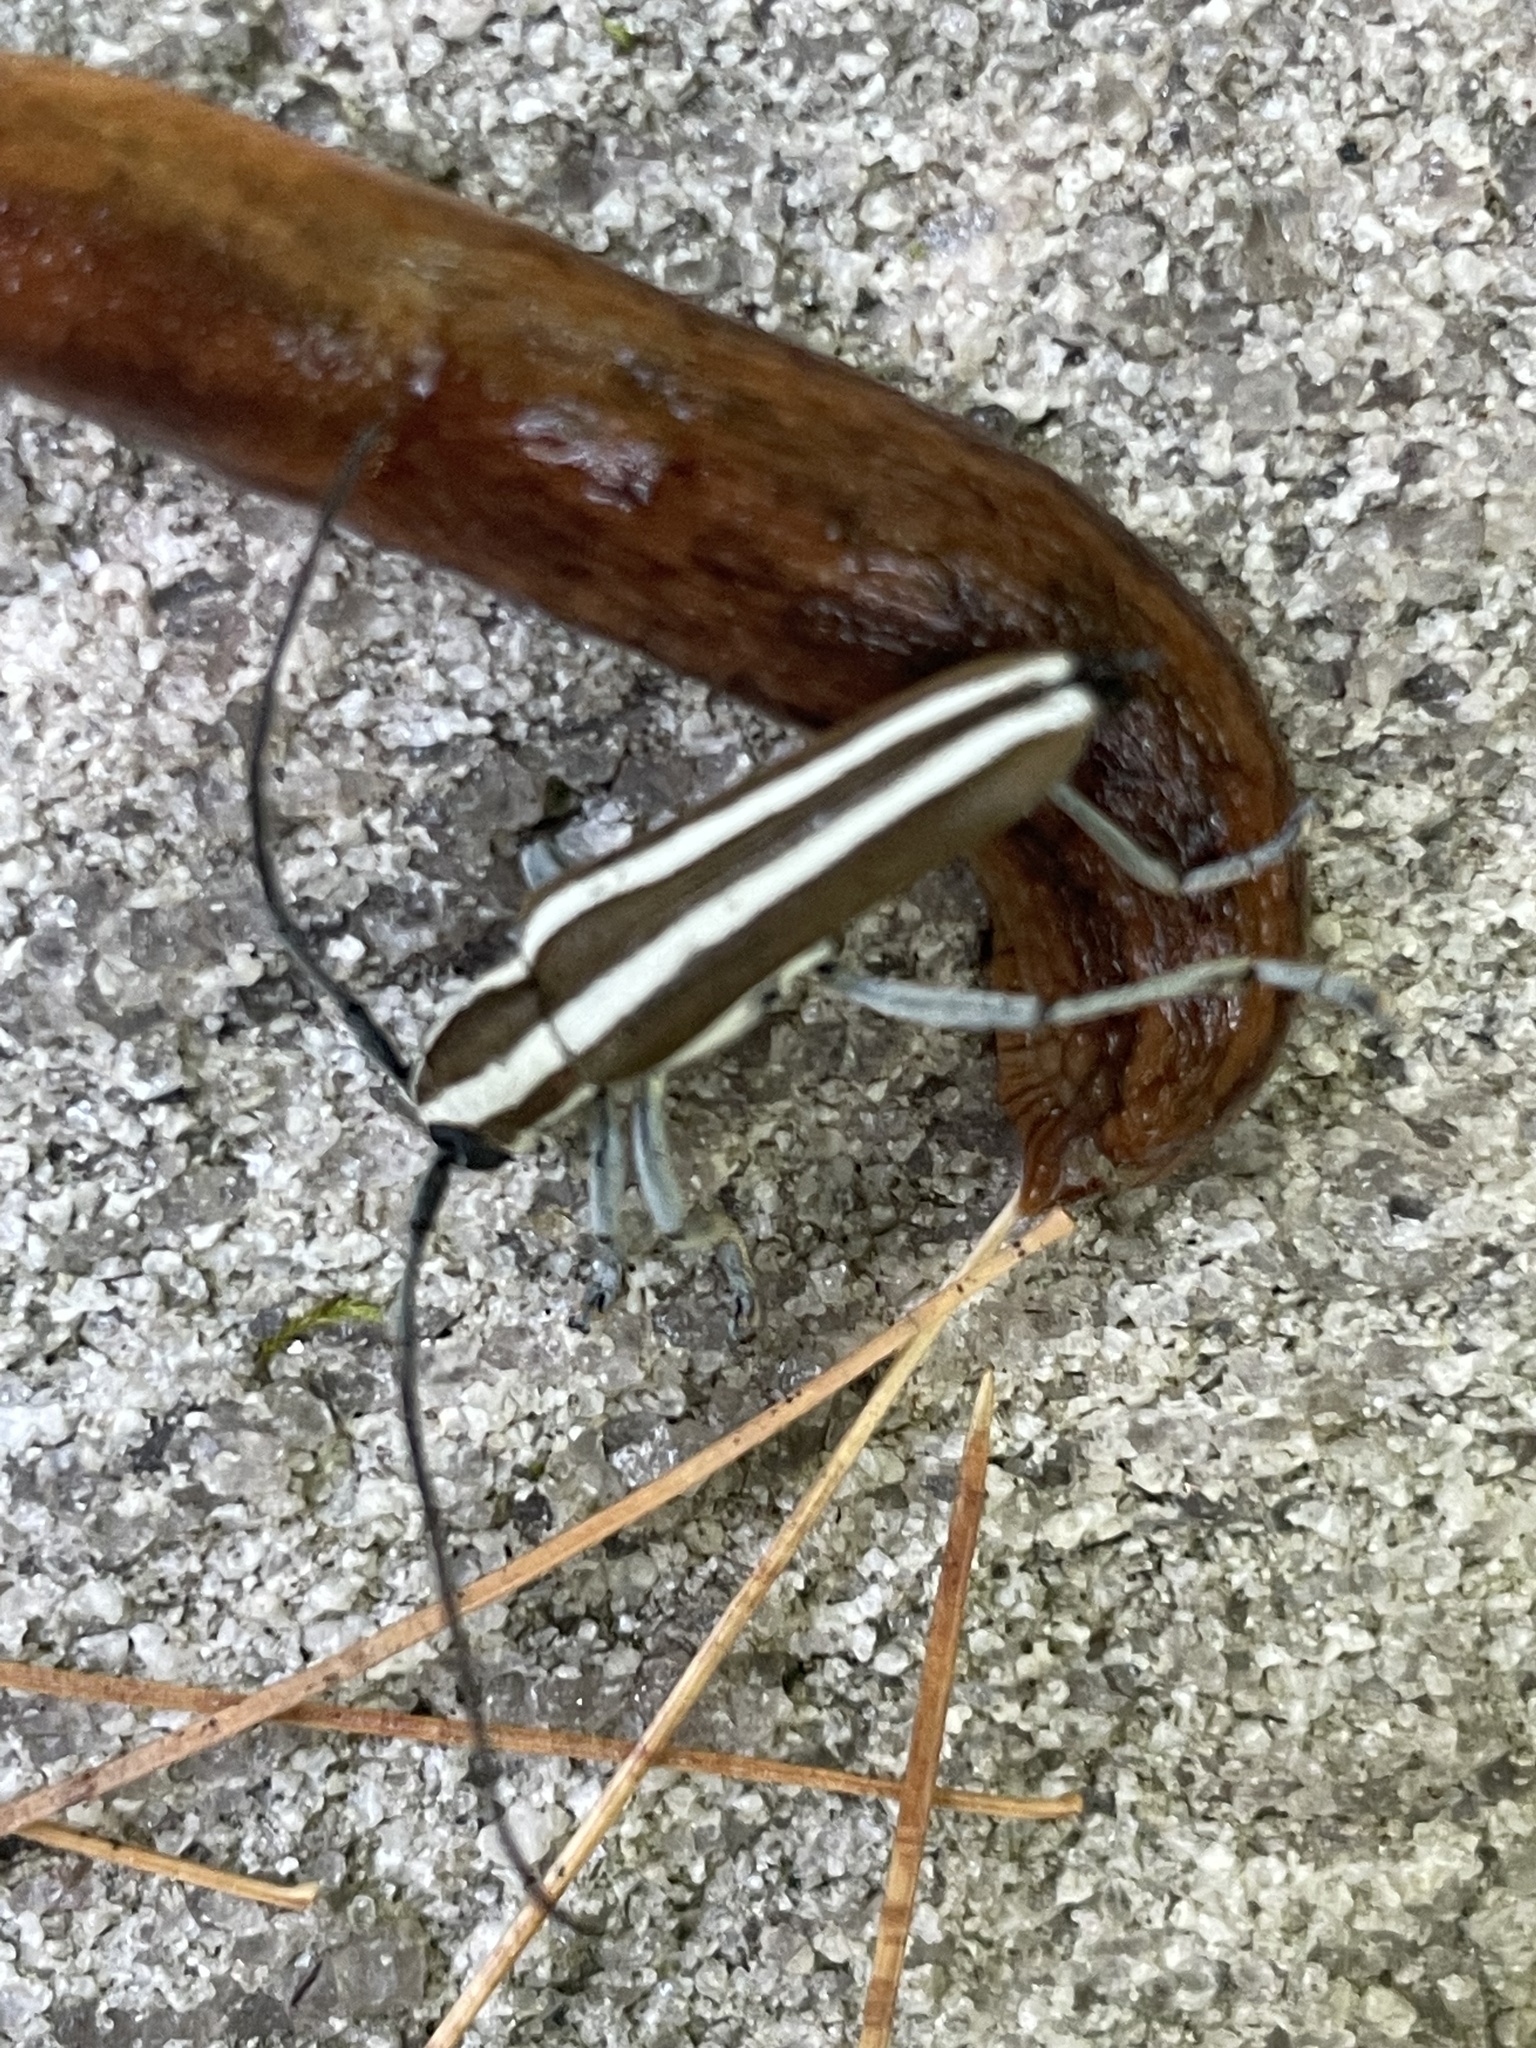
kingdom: Animalia
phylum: Arthropoda
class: Insecta
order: Coleoptera
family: Cerambycidae
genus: Saperda
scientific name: Saperda candida
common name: Round-headed borer
